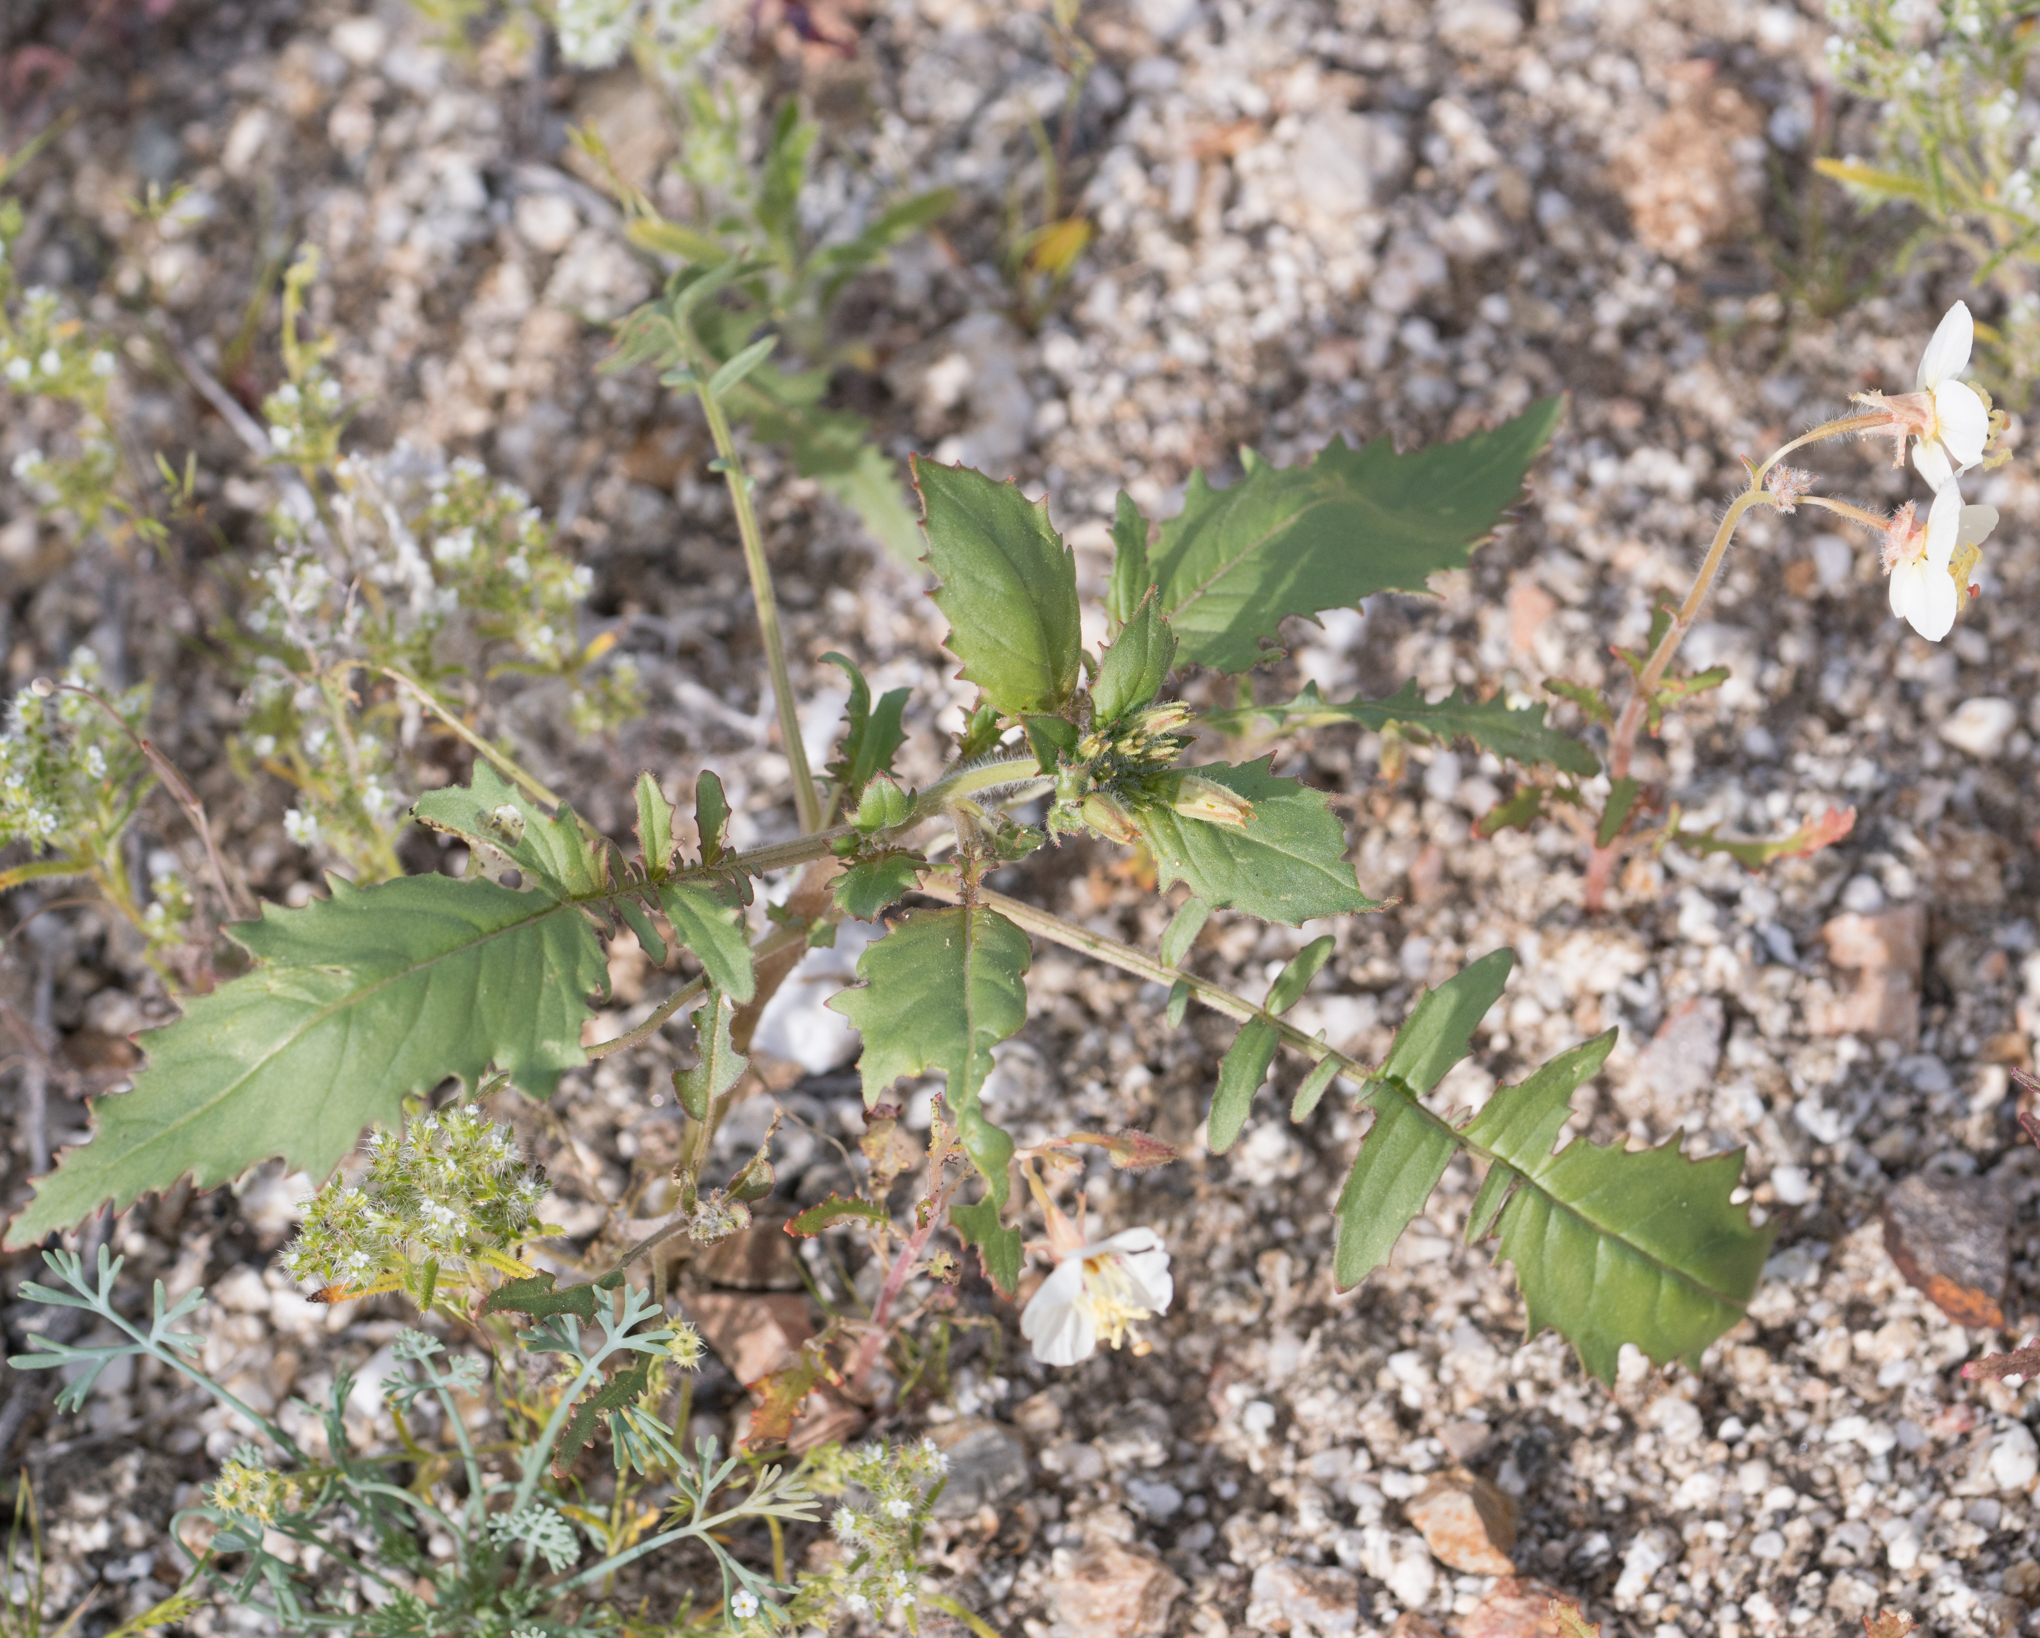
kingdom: Plantae
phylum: Tracheophyta
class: Magnoliopsida
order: Myrtales
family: Onagraceae
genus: Chylismia
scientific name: Chylismia claviformis
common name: Browneyes
